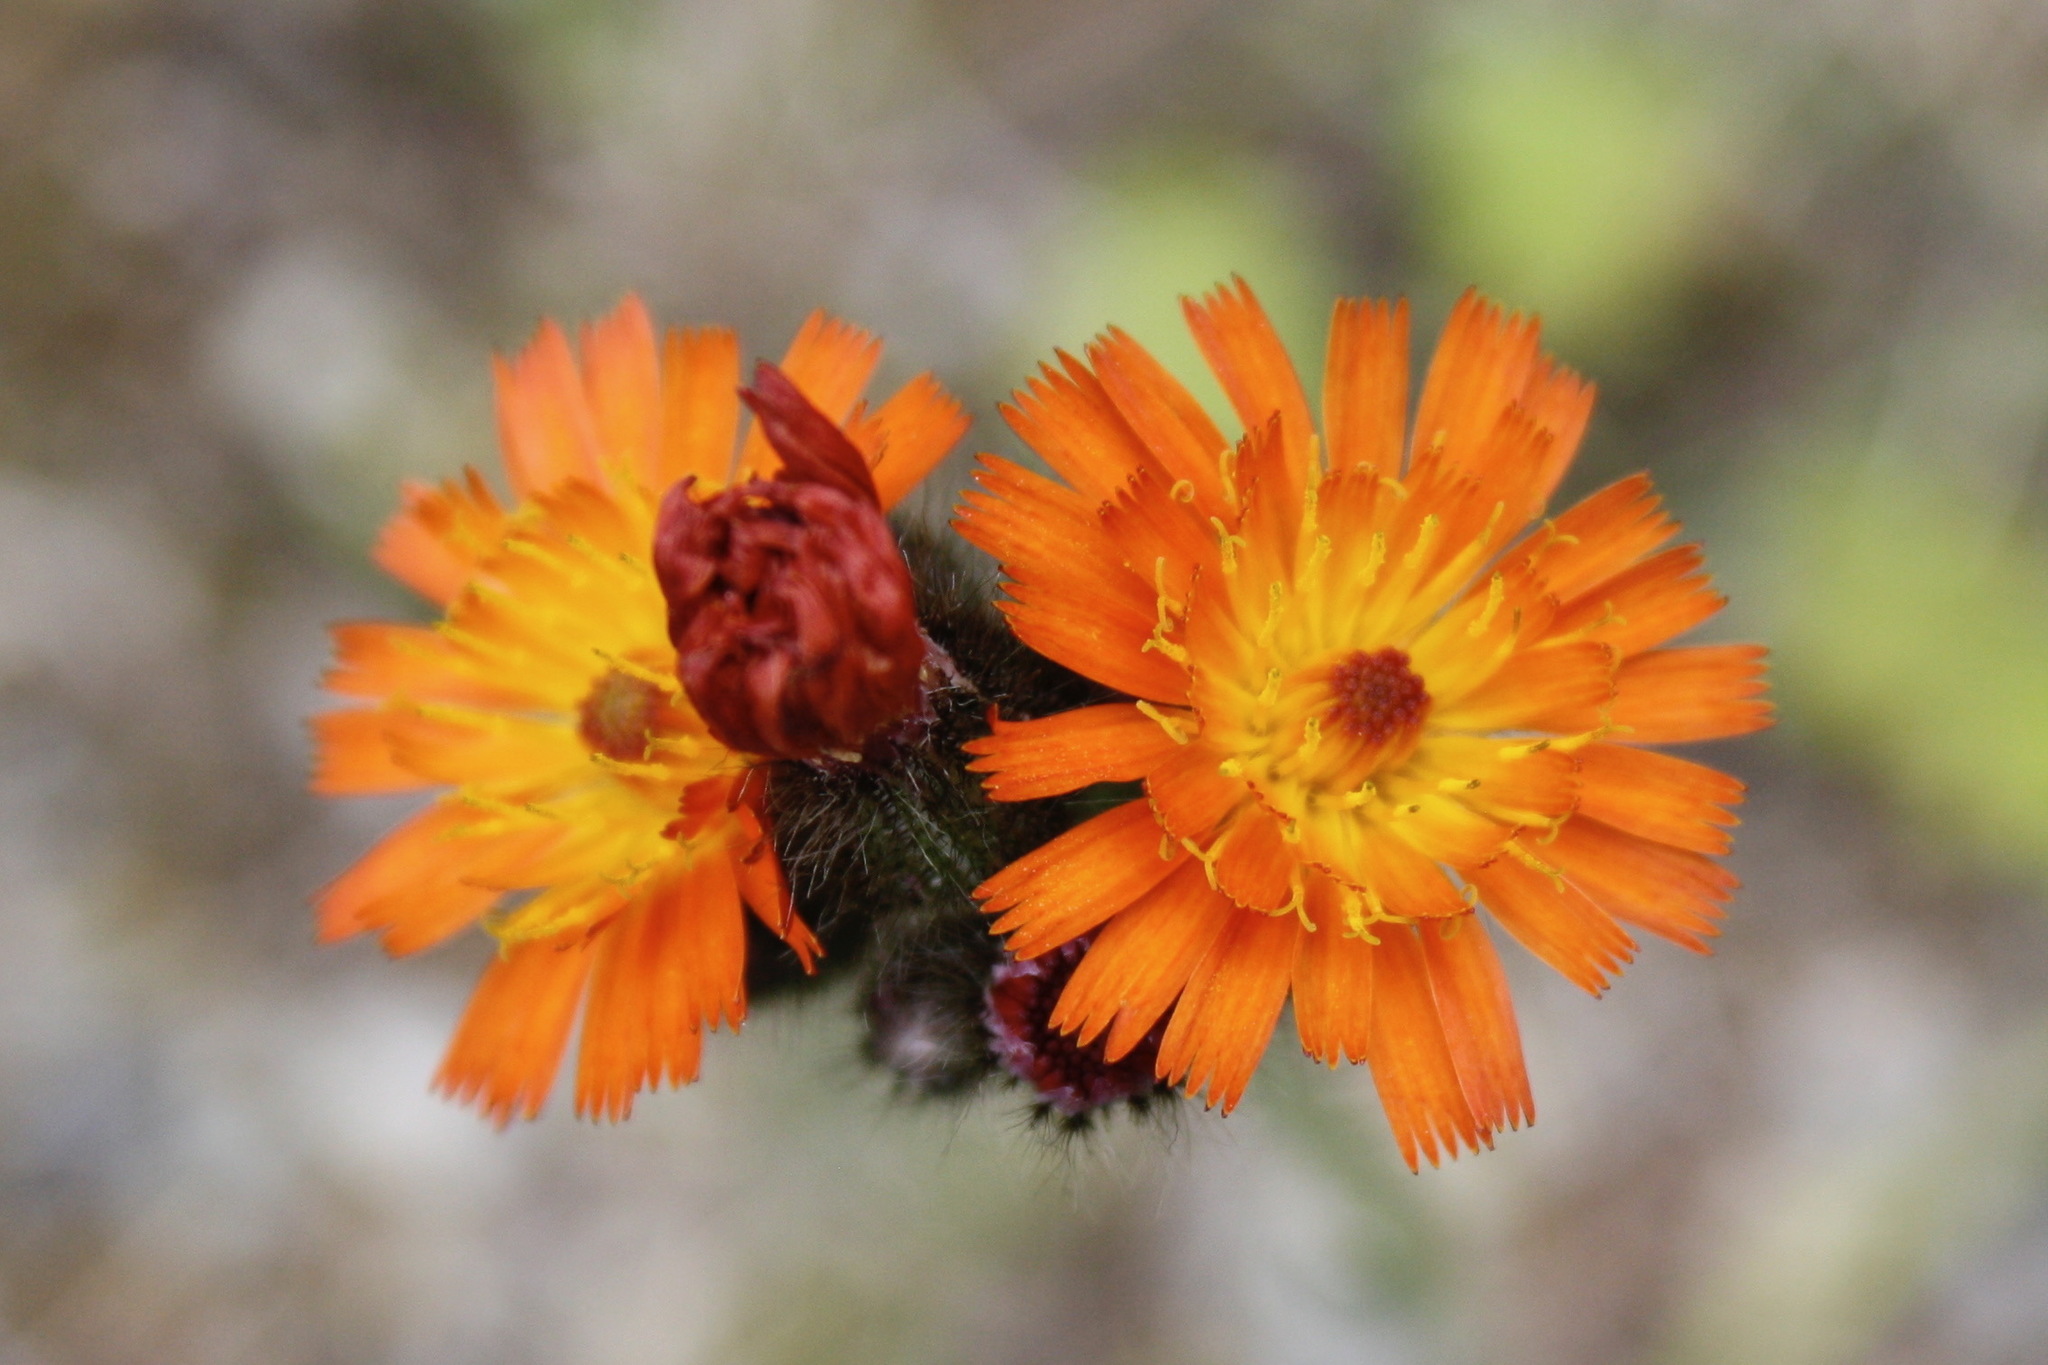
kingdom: Plantae
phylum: Tracheophyta
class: Magnoliopsida
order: Asterales
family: Asteraceae
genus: Pilosella
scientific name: Pilosella aurantiaca
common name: Fox-and-cubs
